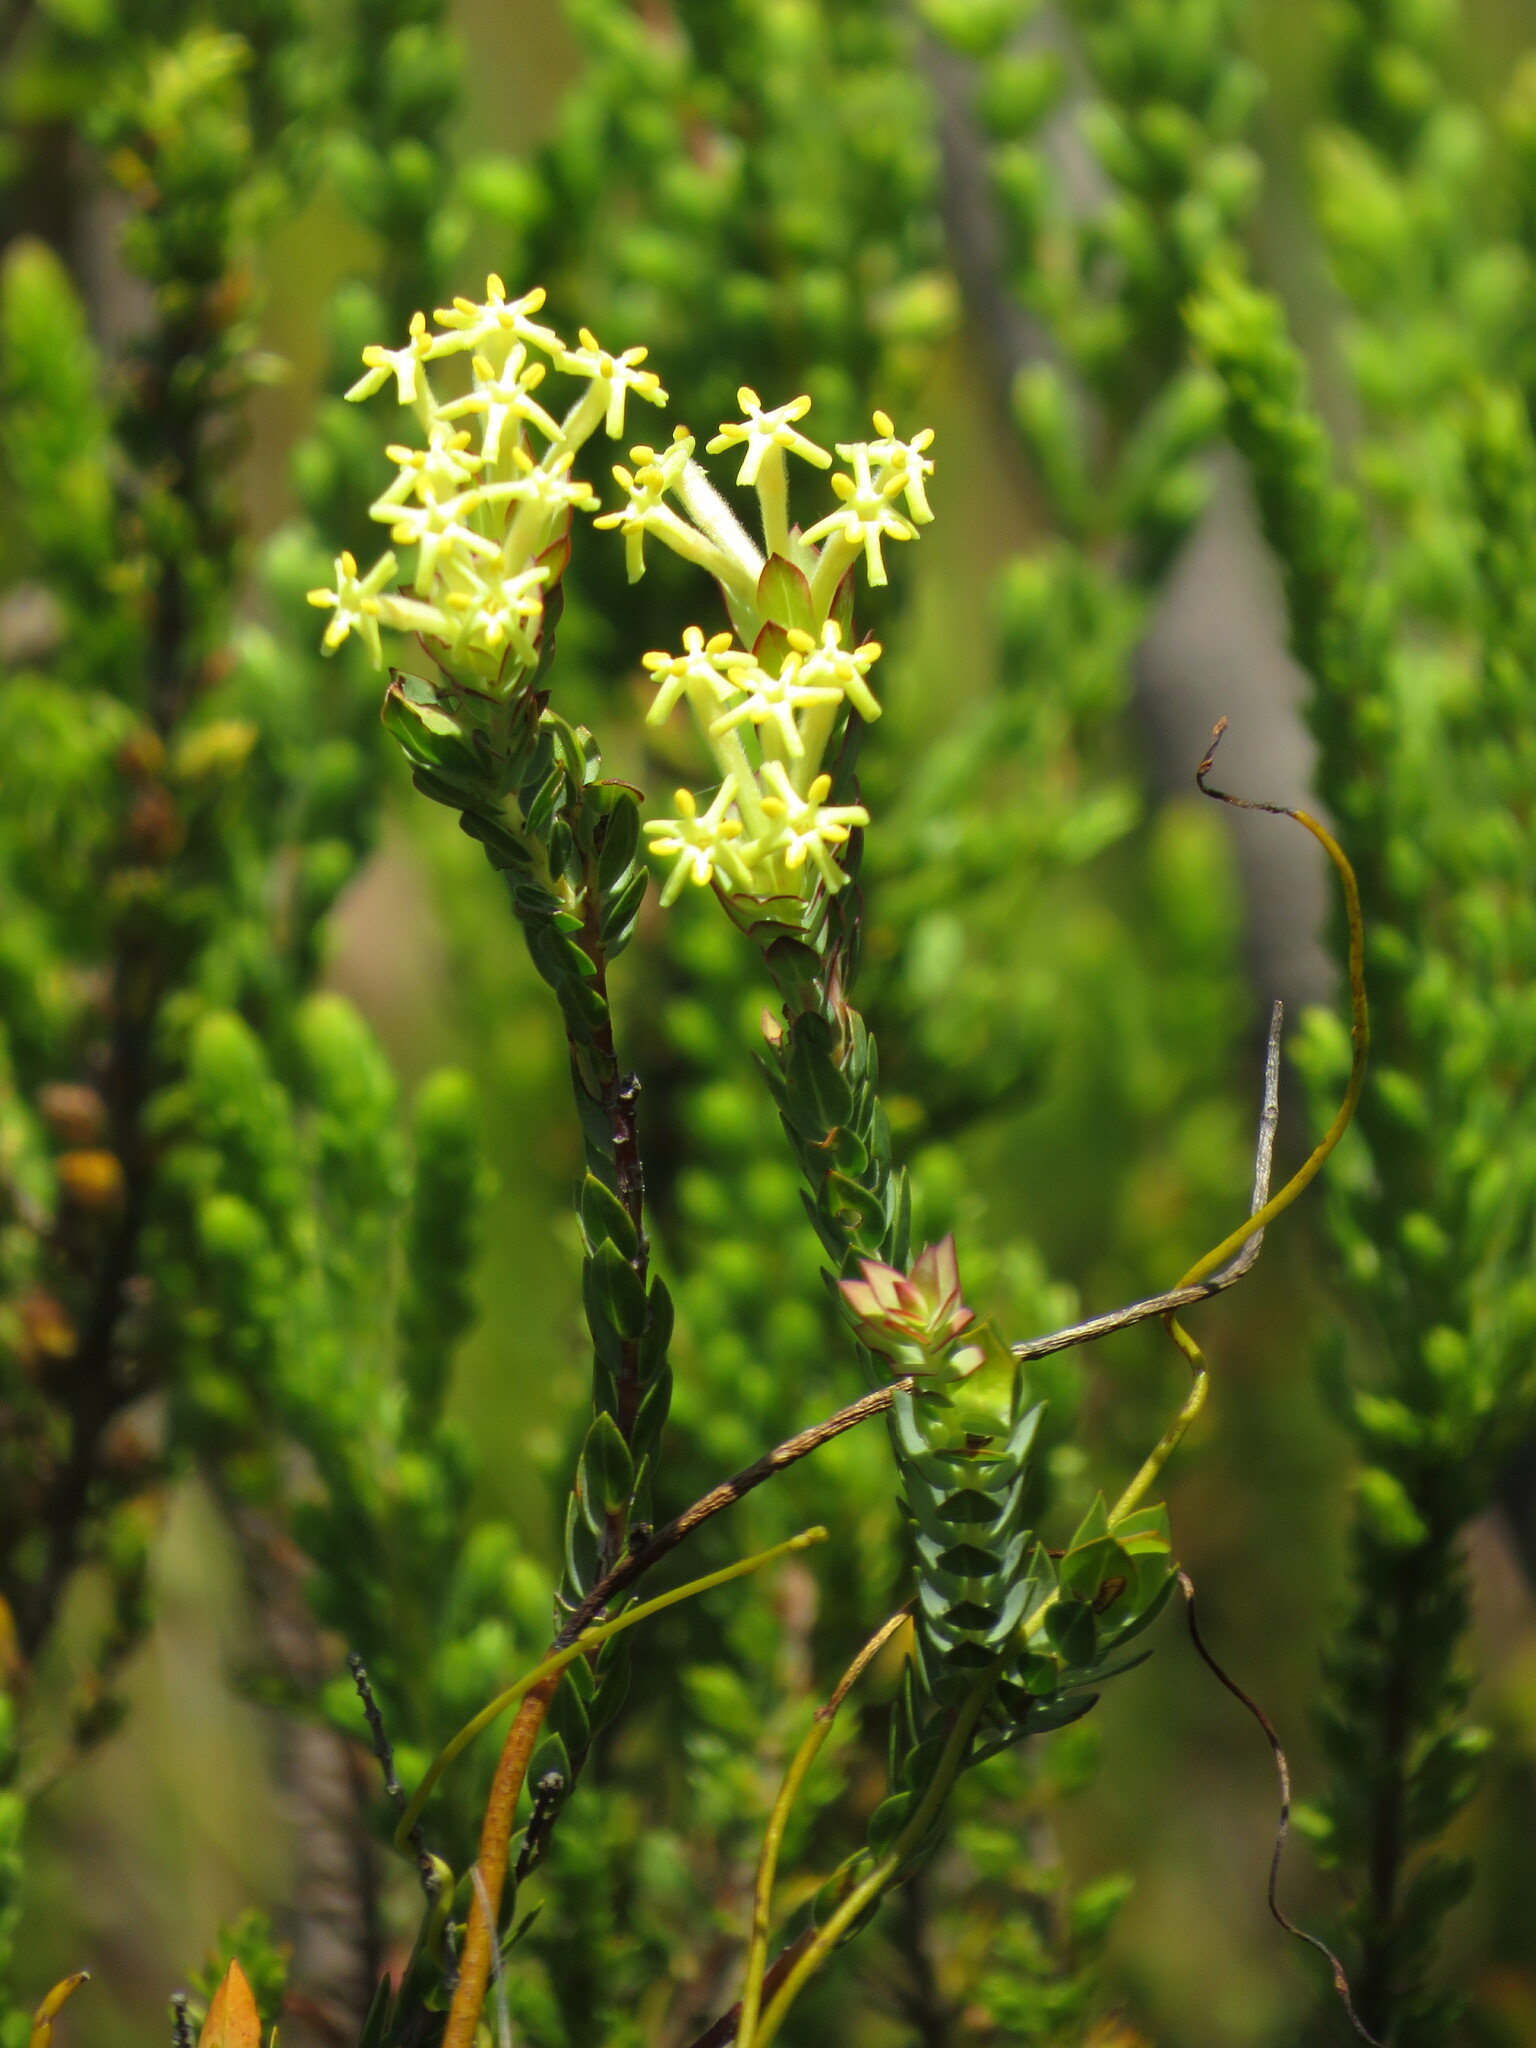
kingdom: Plantae
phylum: Tracheophyta
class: Magnoliopsida
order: Malvales
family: Thymelaeaceae
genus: Gnidia
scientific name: Gnidia oppositifolia
